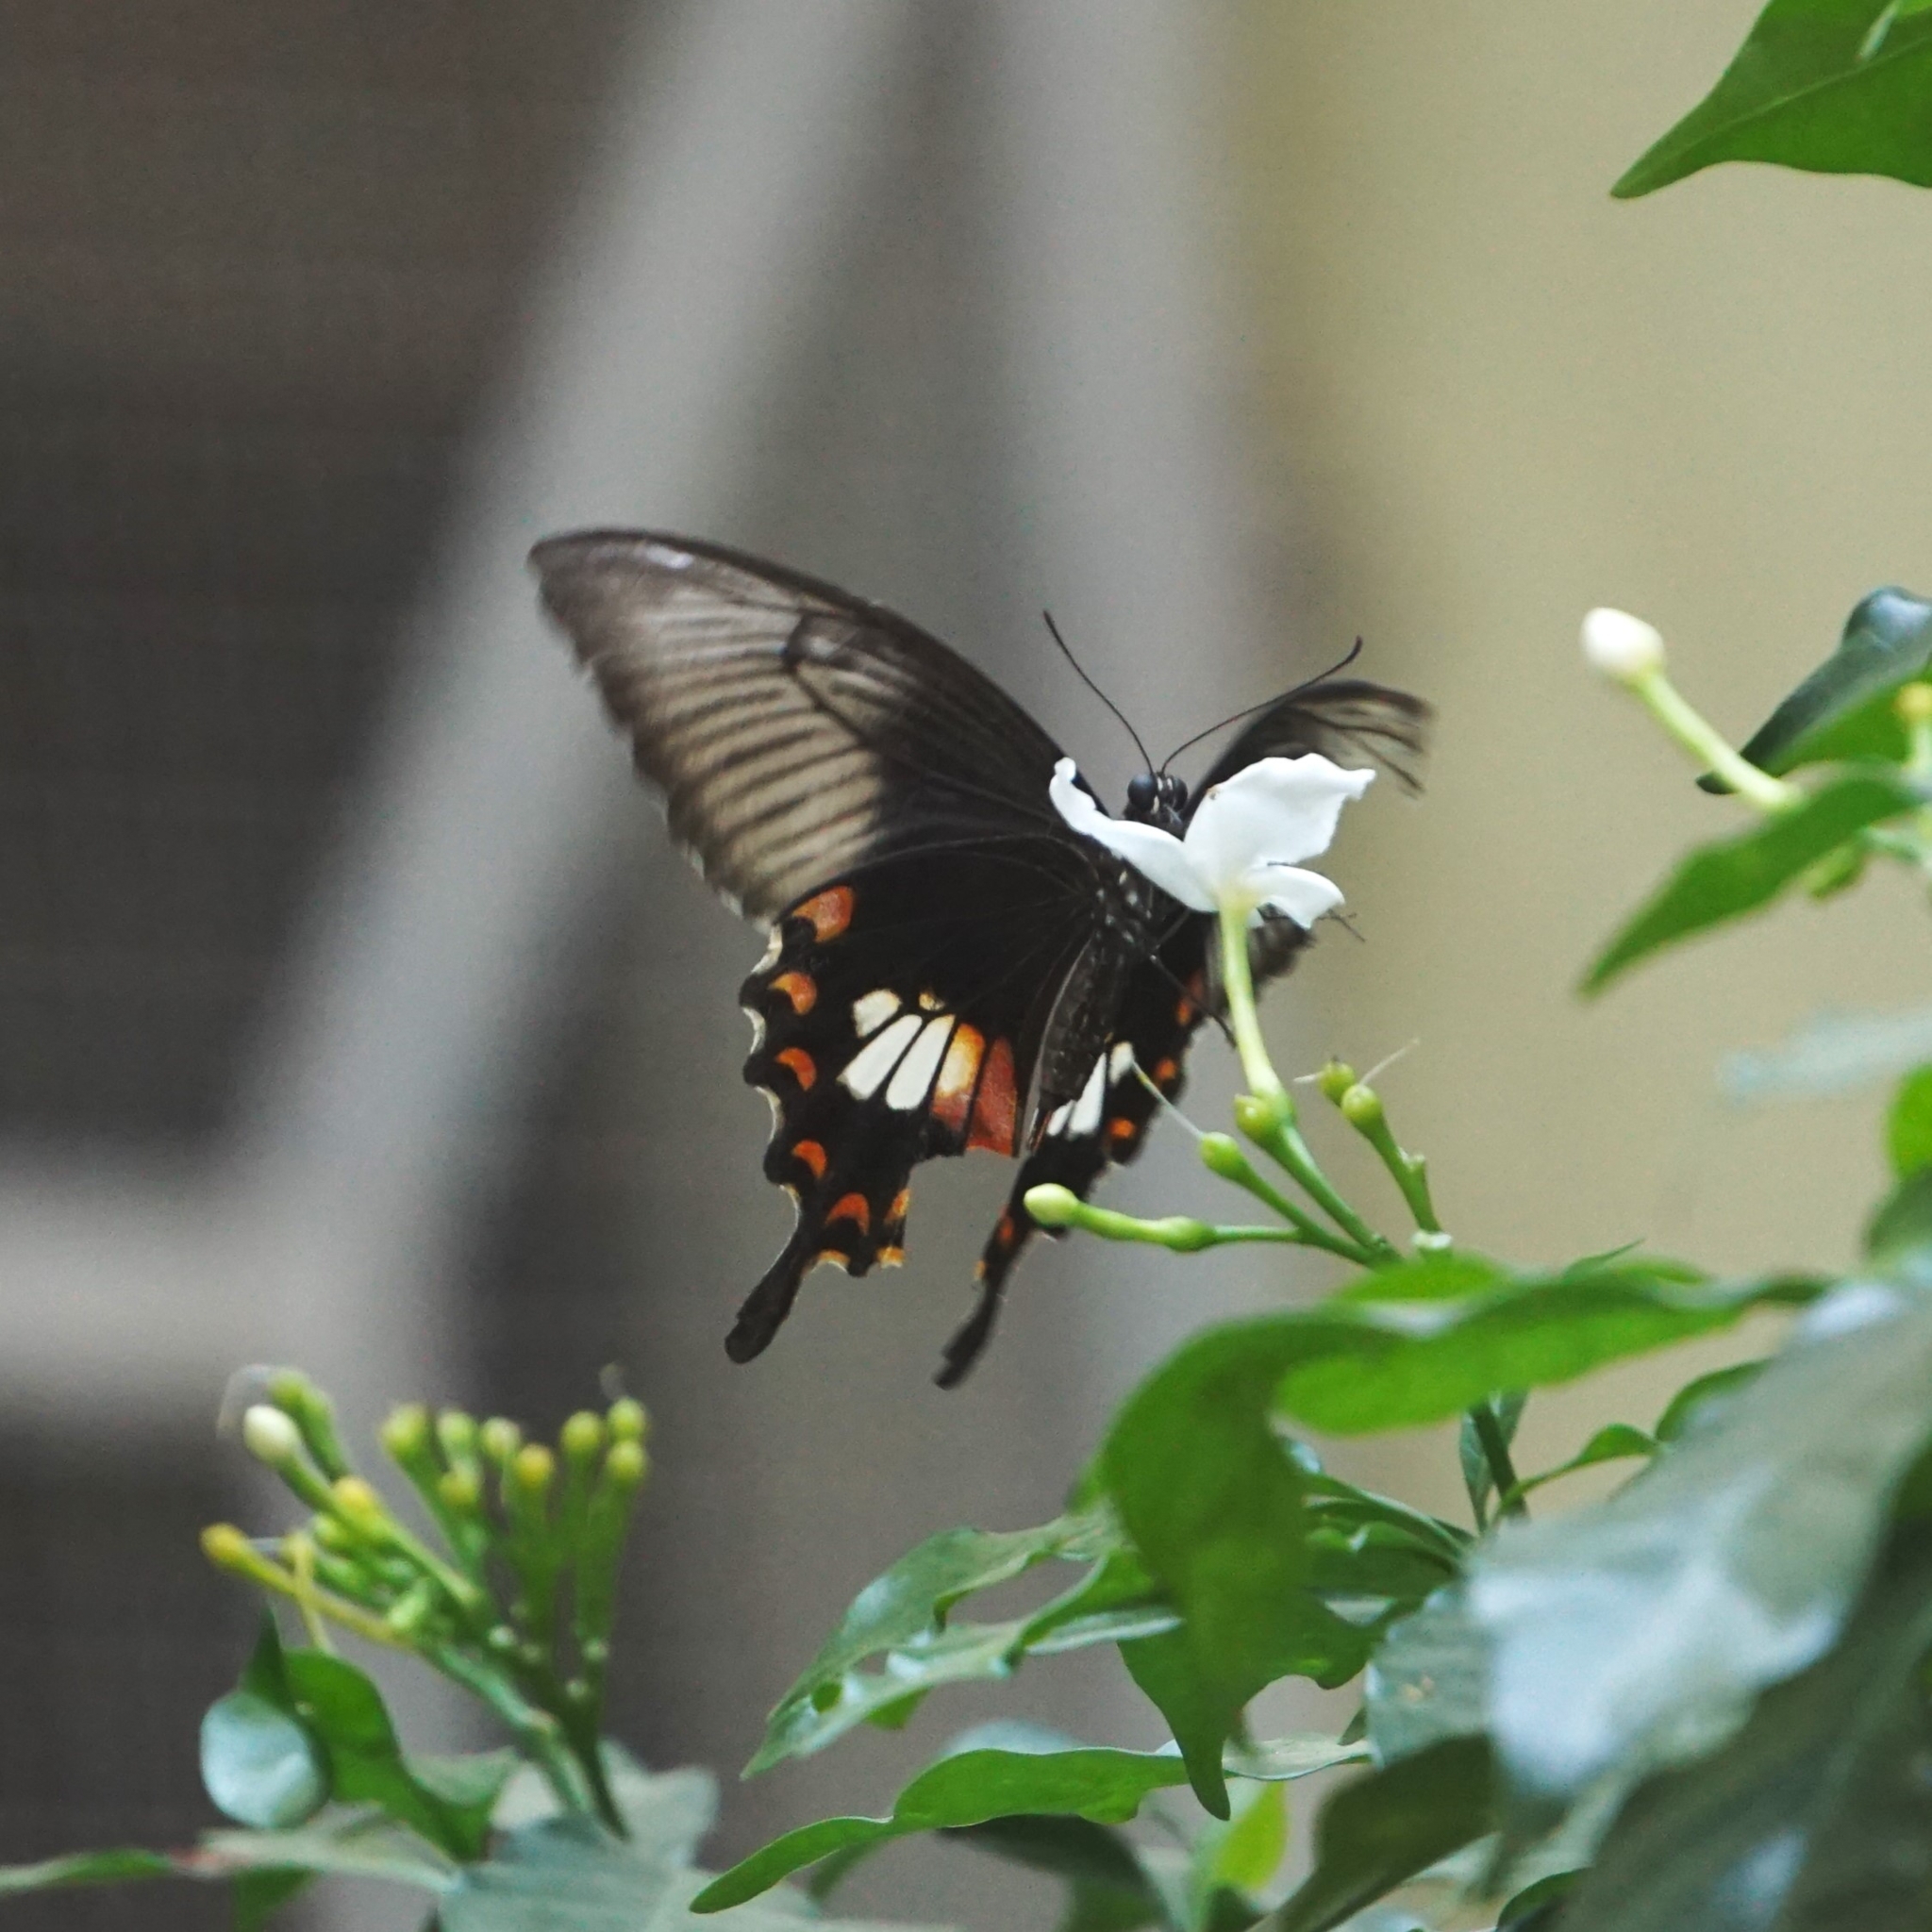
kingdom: Animalia
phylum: Arthropoda
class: Insecta
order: Lepidoptera
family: Papilionidae
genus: Papilio
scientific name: Papilio polytes
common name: Common mormon
